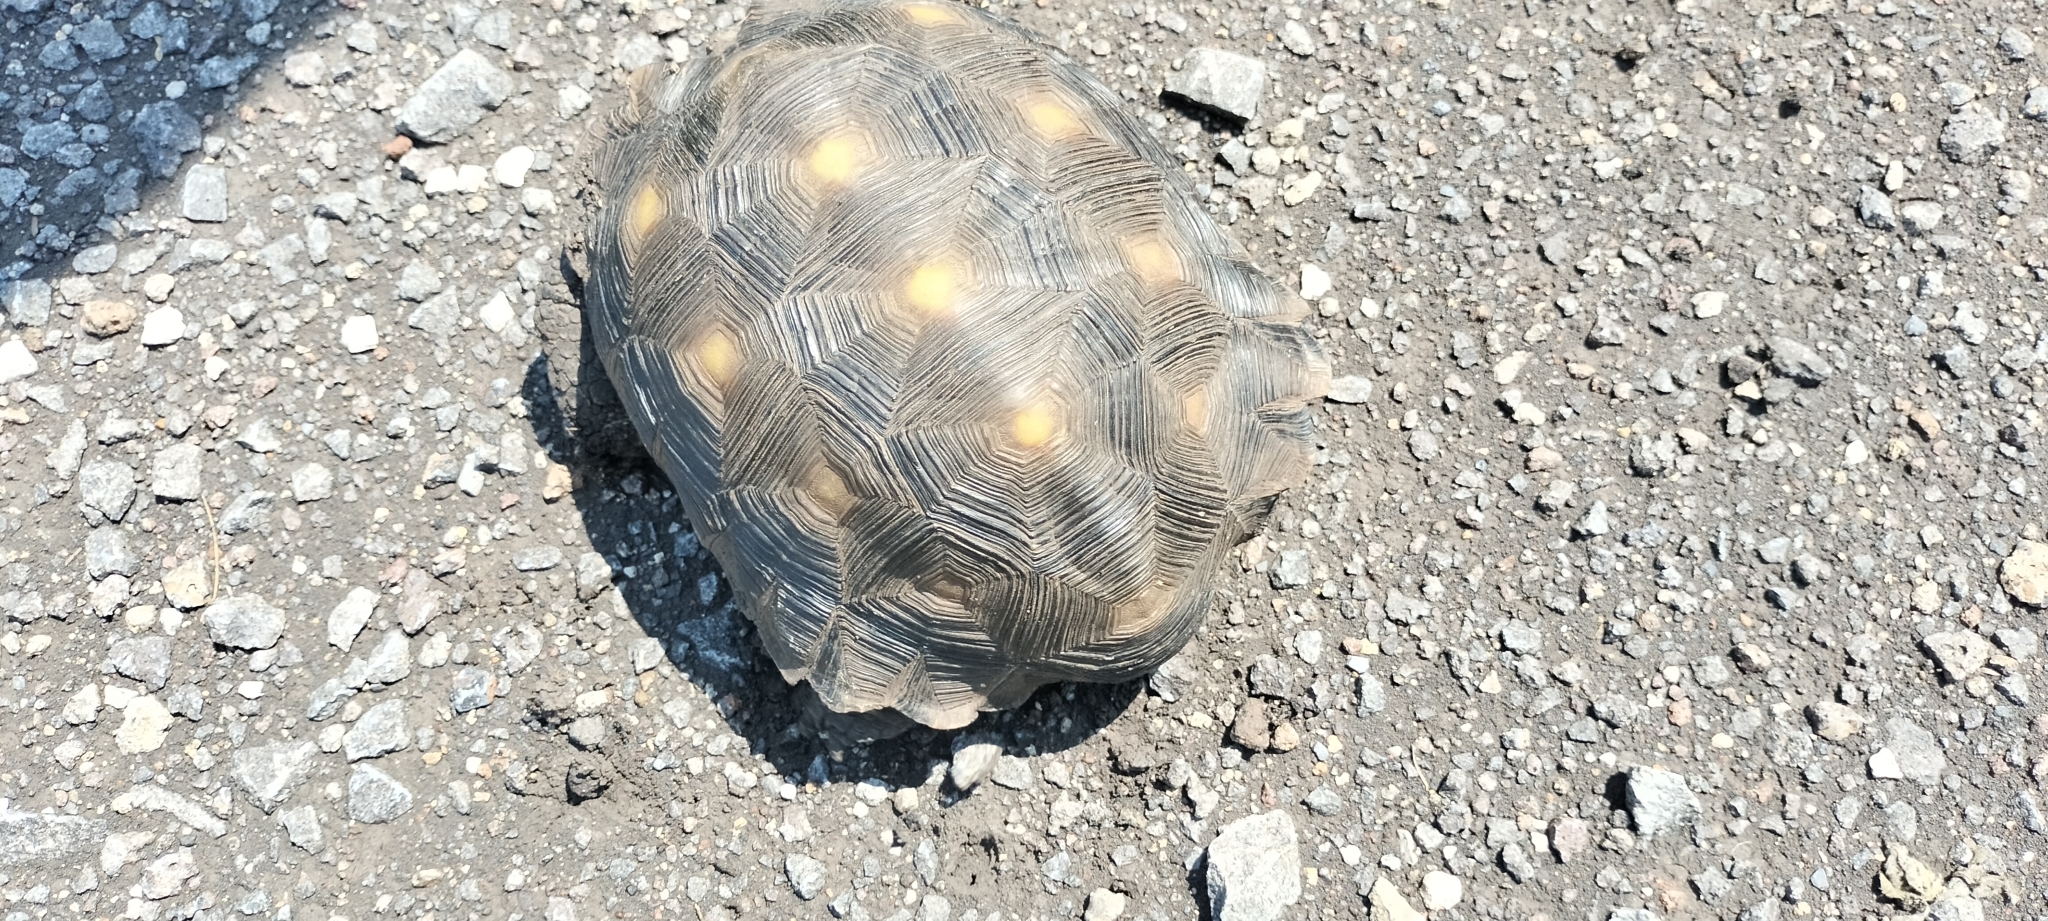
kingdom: Animalia
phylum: Chordata
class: Testudines
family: Testudinidae
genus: Gopherus
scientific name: Gopherus berlandieri
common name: Texas (gopher )tortoise
